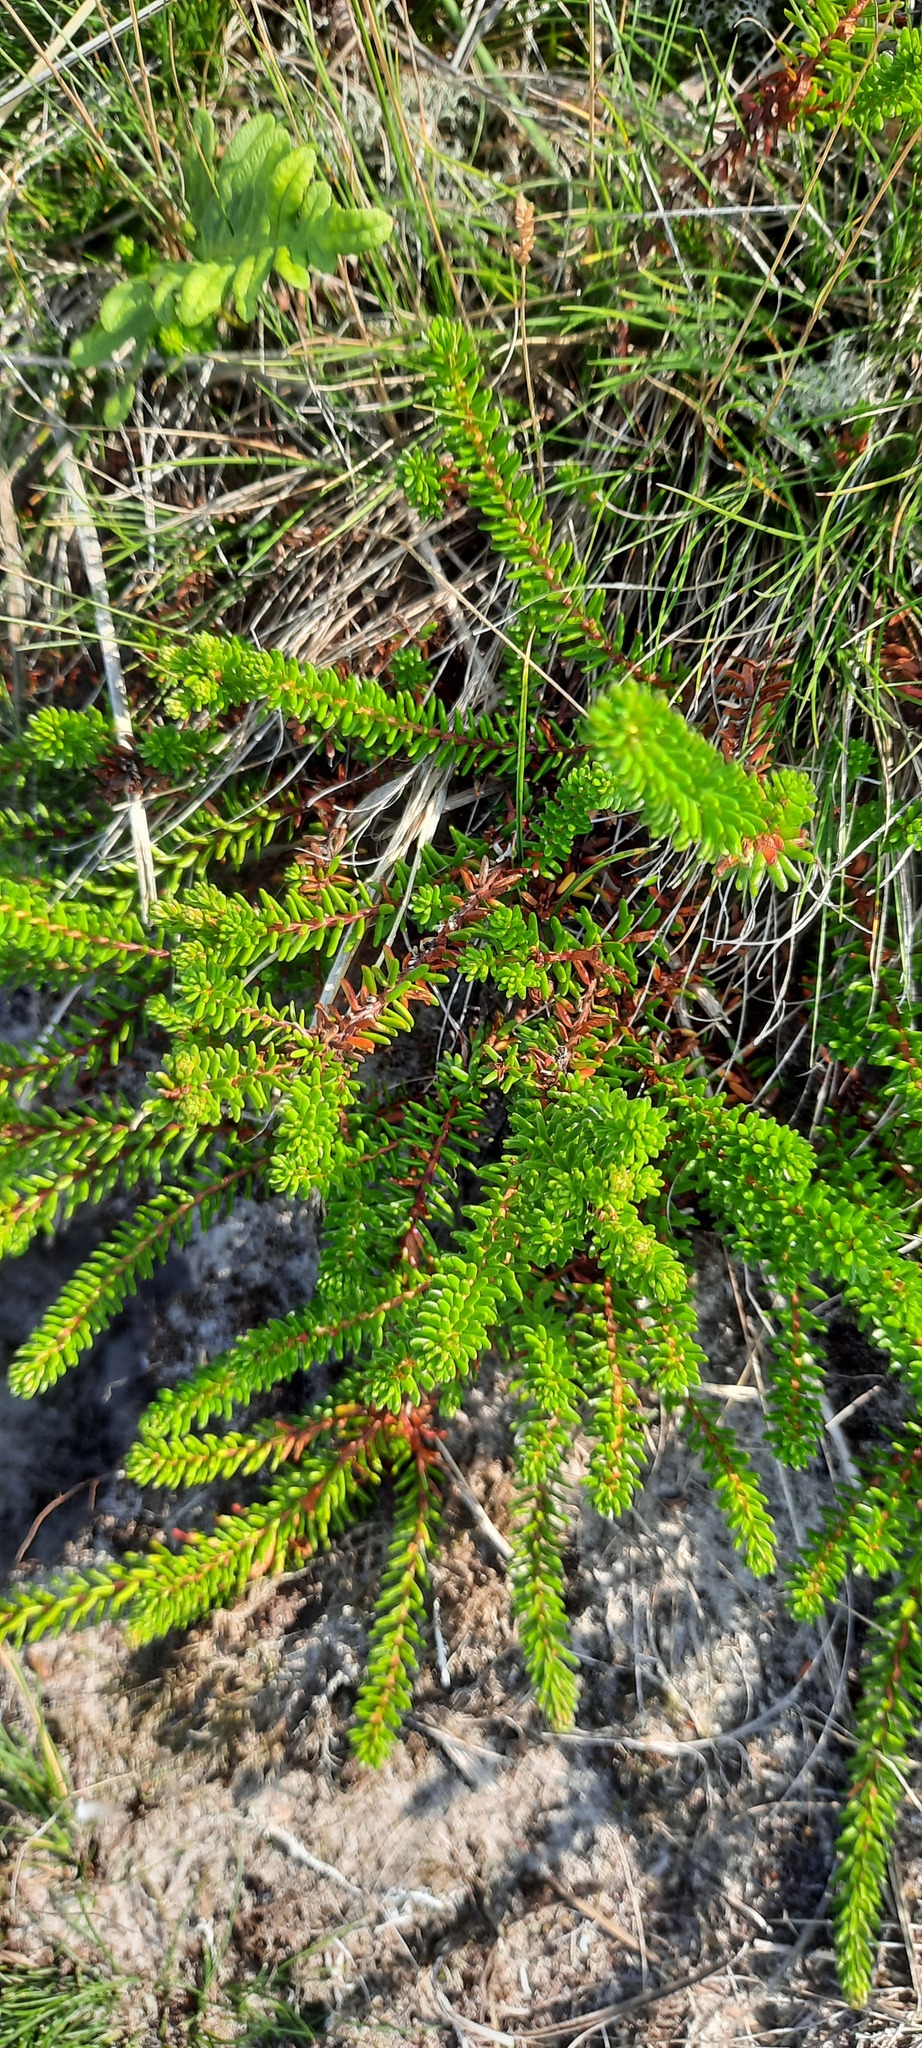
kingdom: Plantae
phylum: Tracheophyta
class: Magnoliopsida
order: Ericales
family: Ericaceae
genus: Empetrum
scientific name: Empetrum nigrum
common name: Black crowberry
